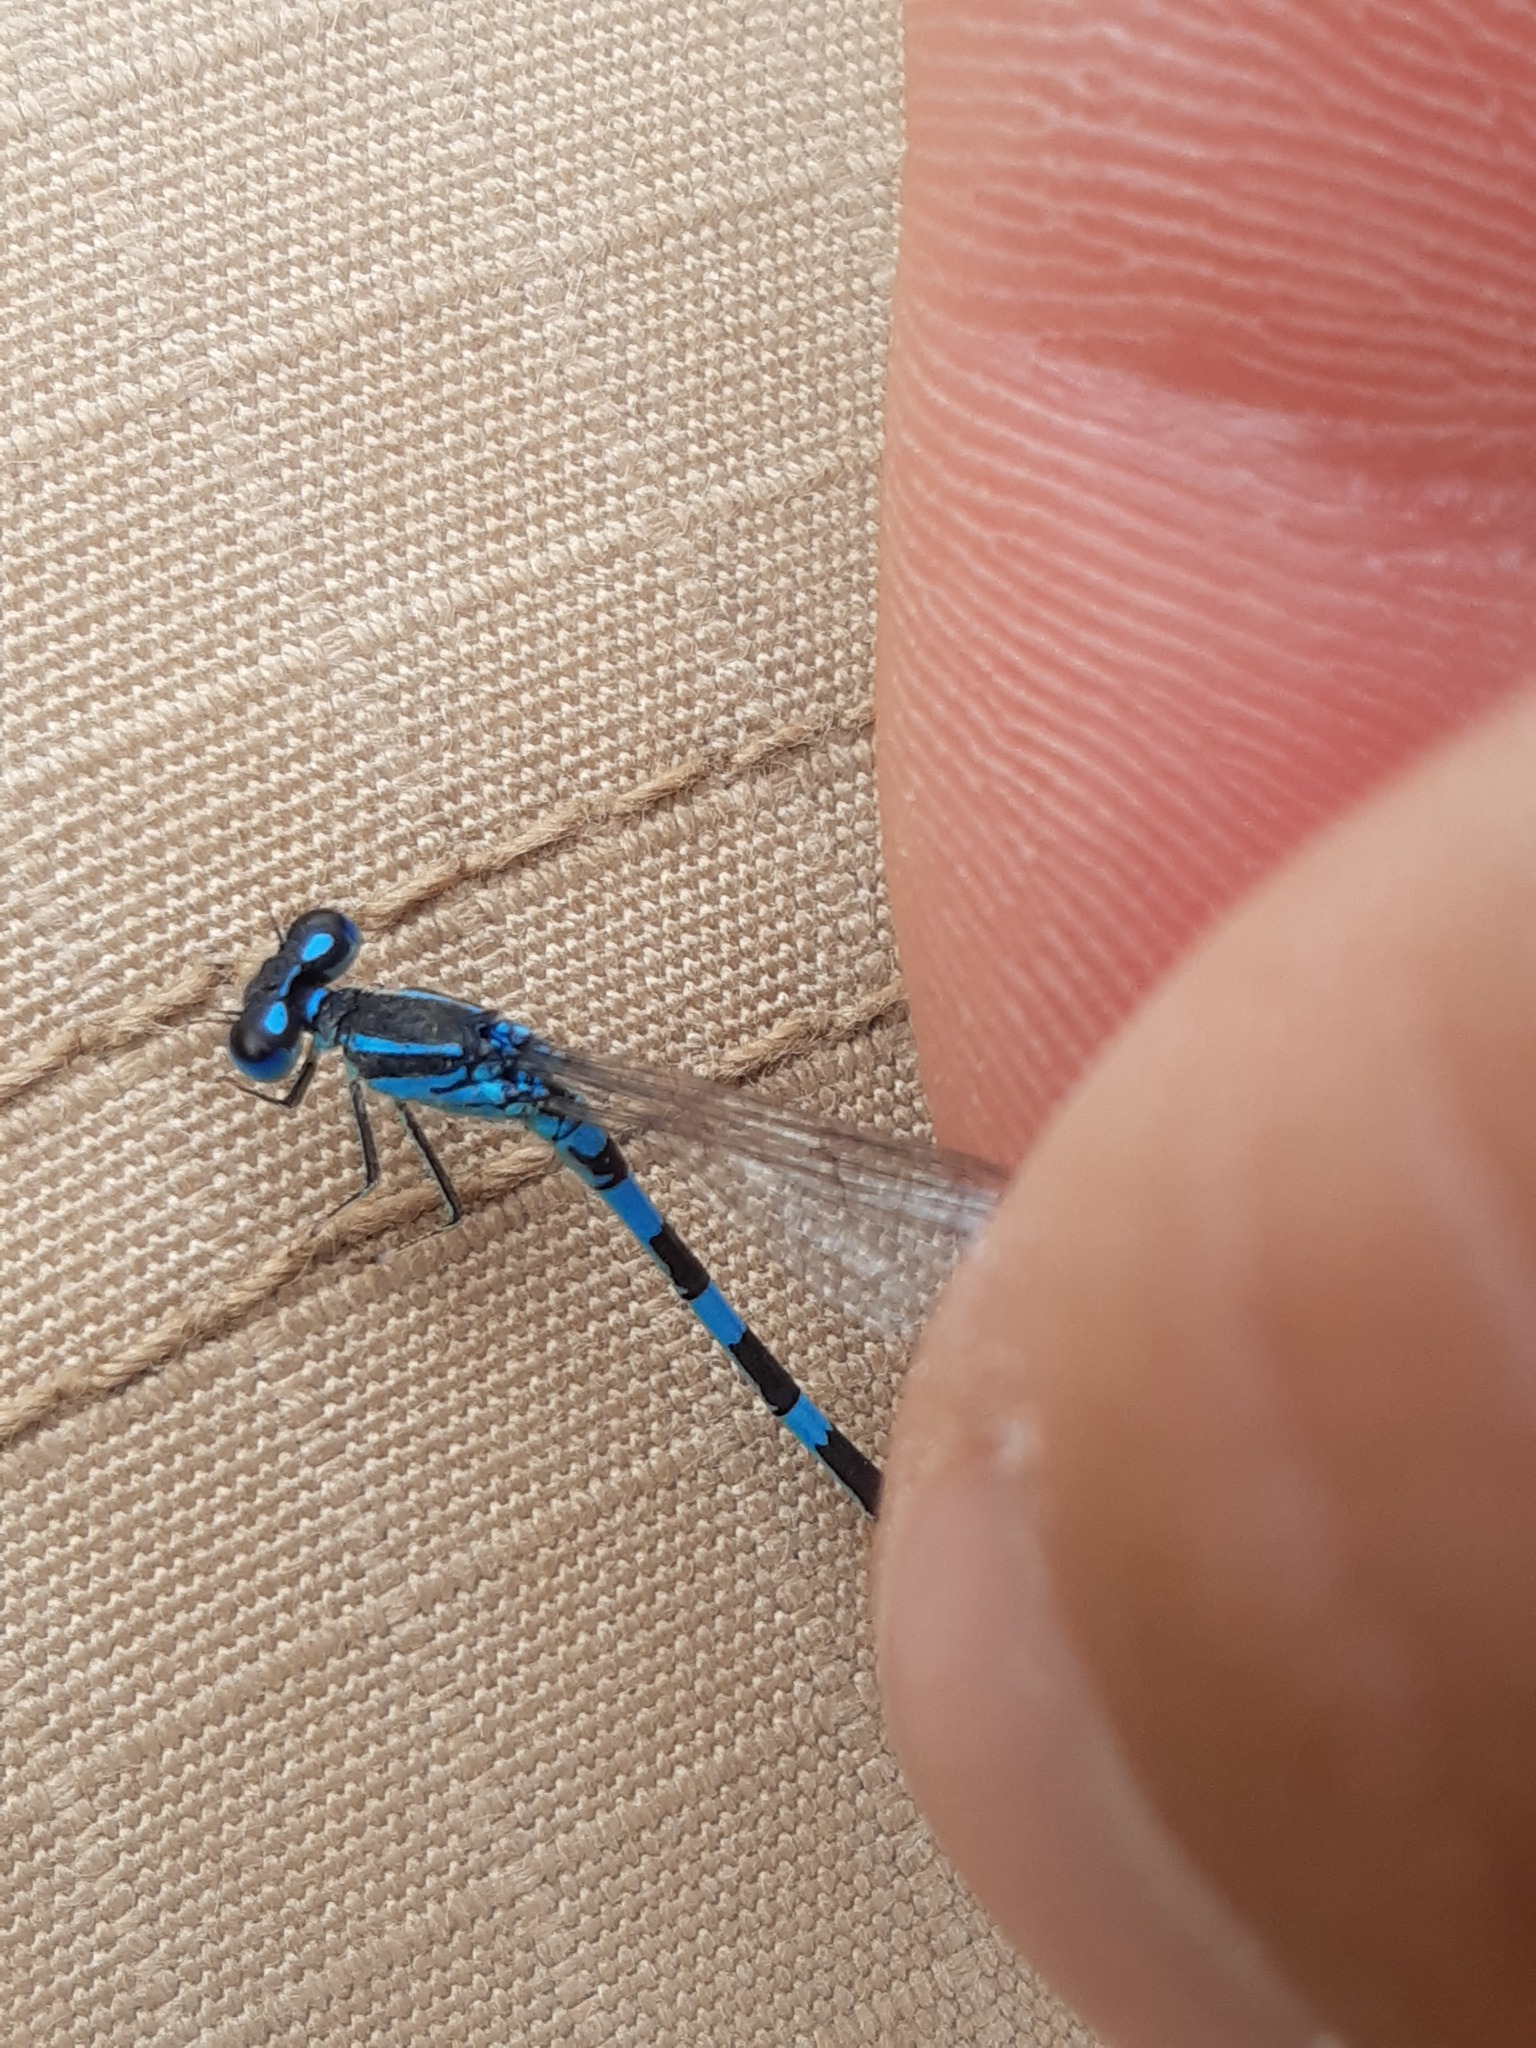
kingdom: Animalia
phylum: Arthropoda
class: Insecta
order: Odonata
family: Coenagrionidae
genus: Coenagrion
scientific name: Coenagrion scitulum
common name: Dainty bluet
